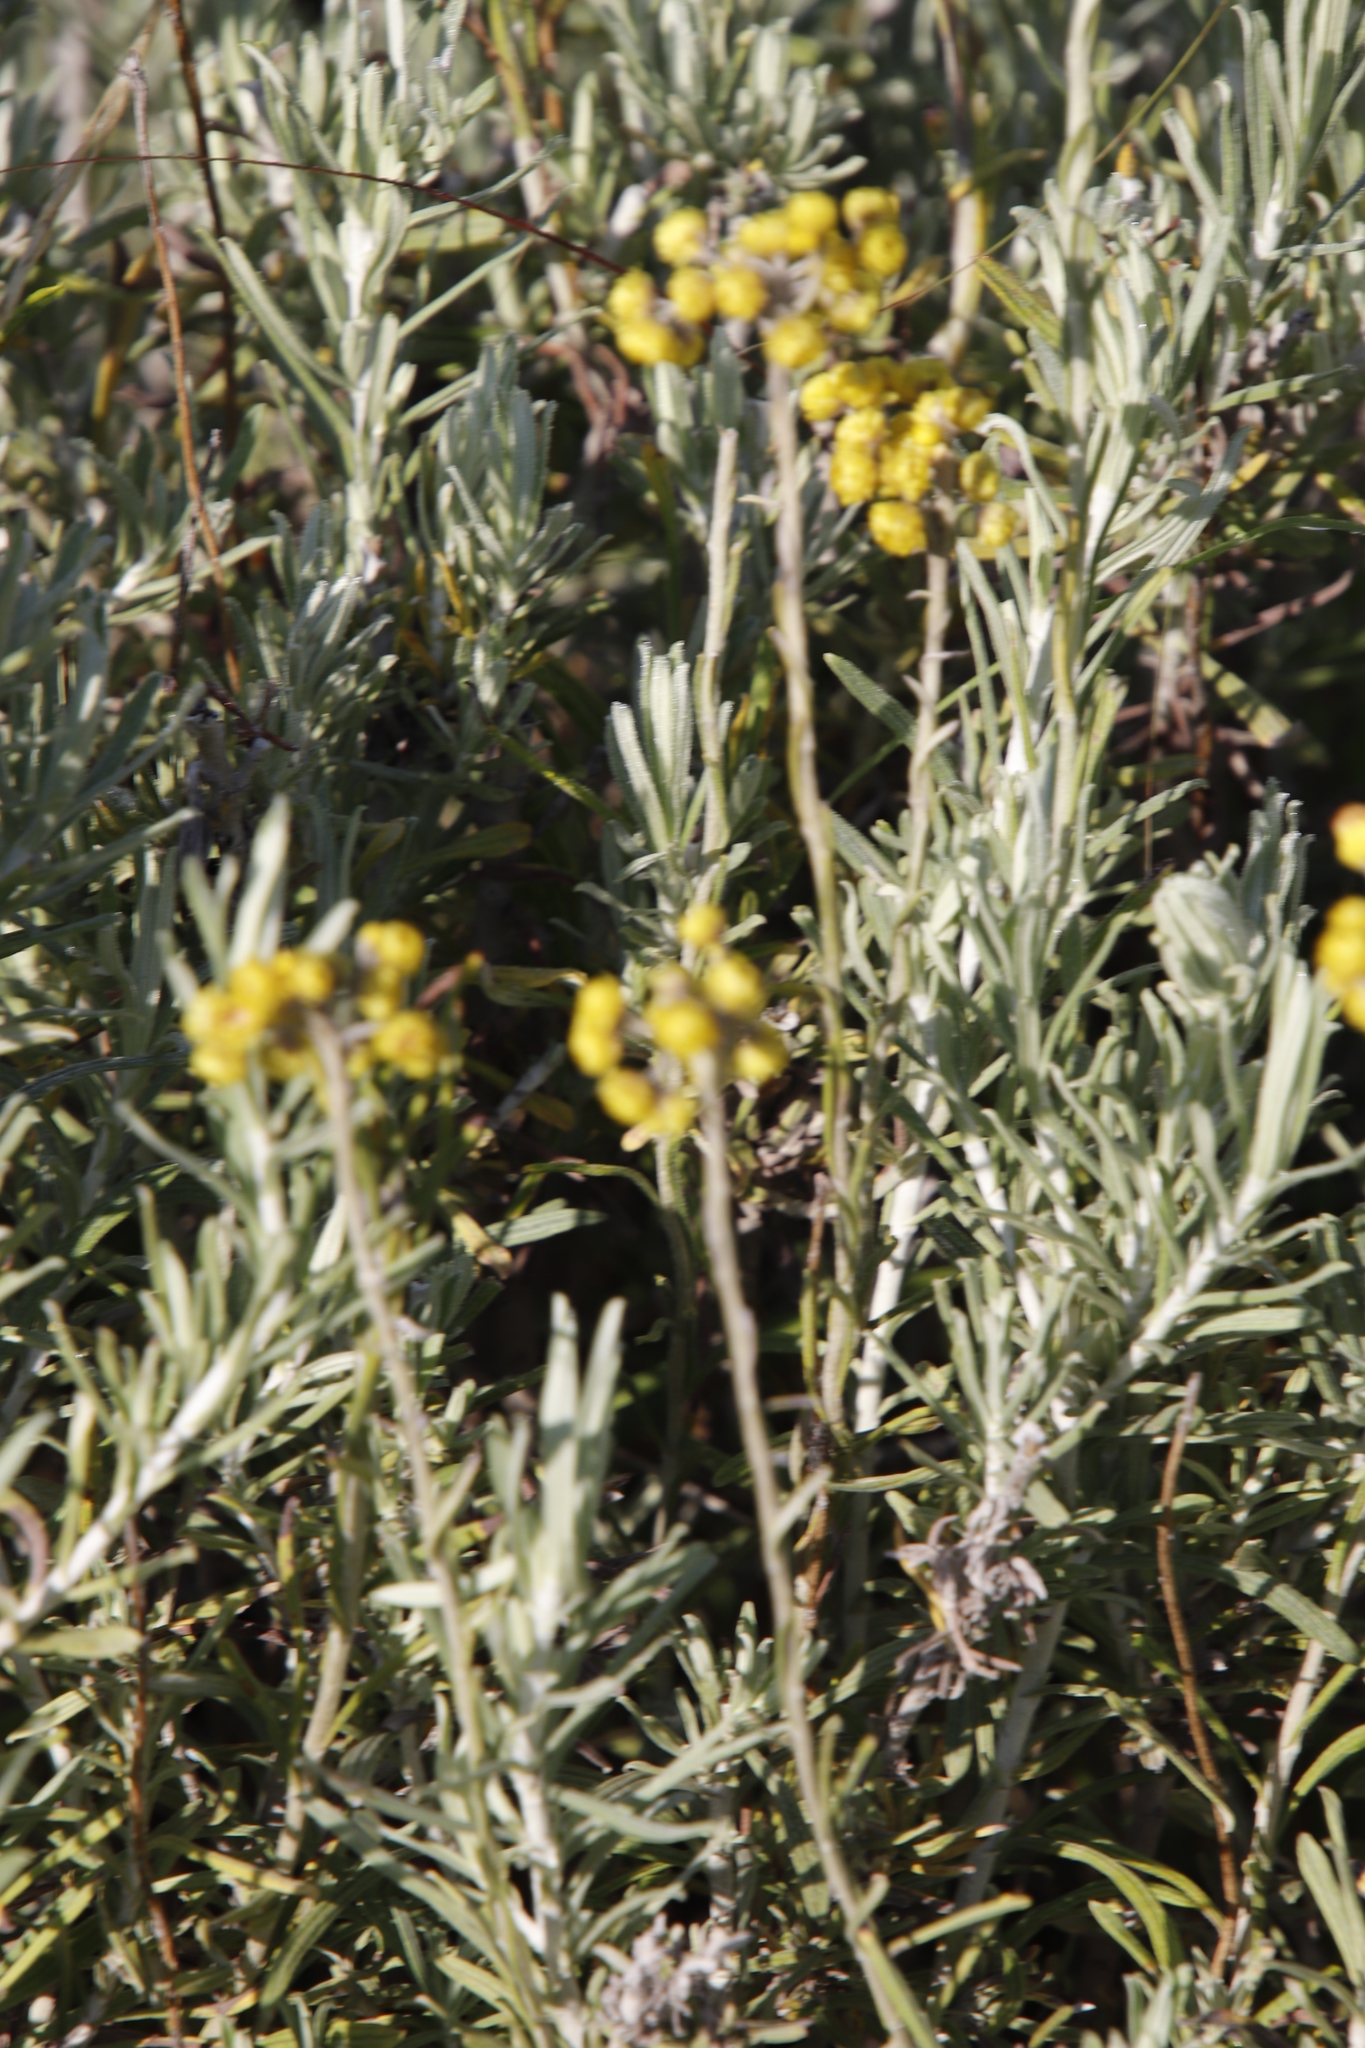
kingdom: Plantae
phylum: Tracheophyta
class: Magnoliopsida
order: Asterales
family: Asteraceae
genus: Helichrysum
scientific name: Helichrysum odoratissimum
